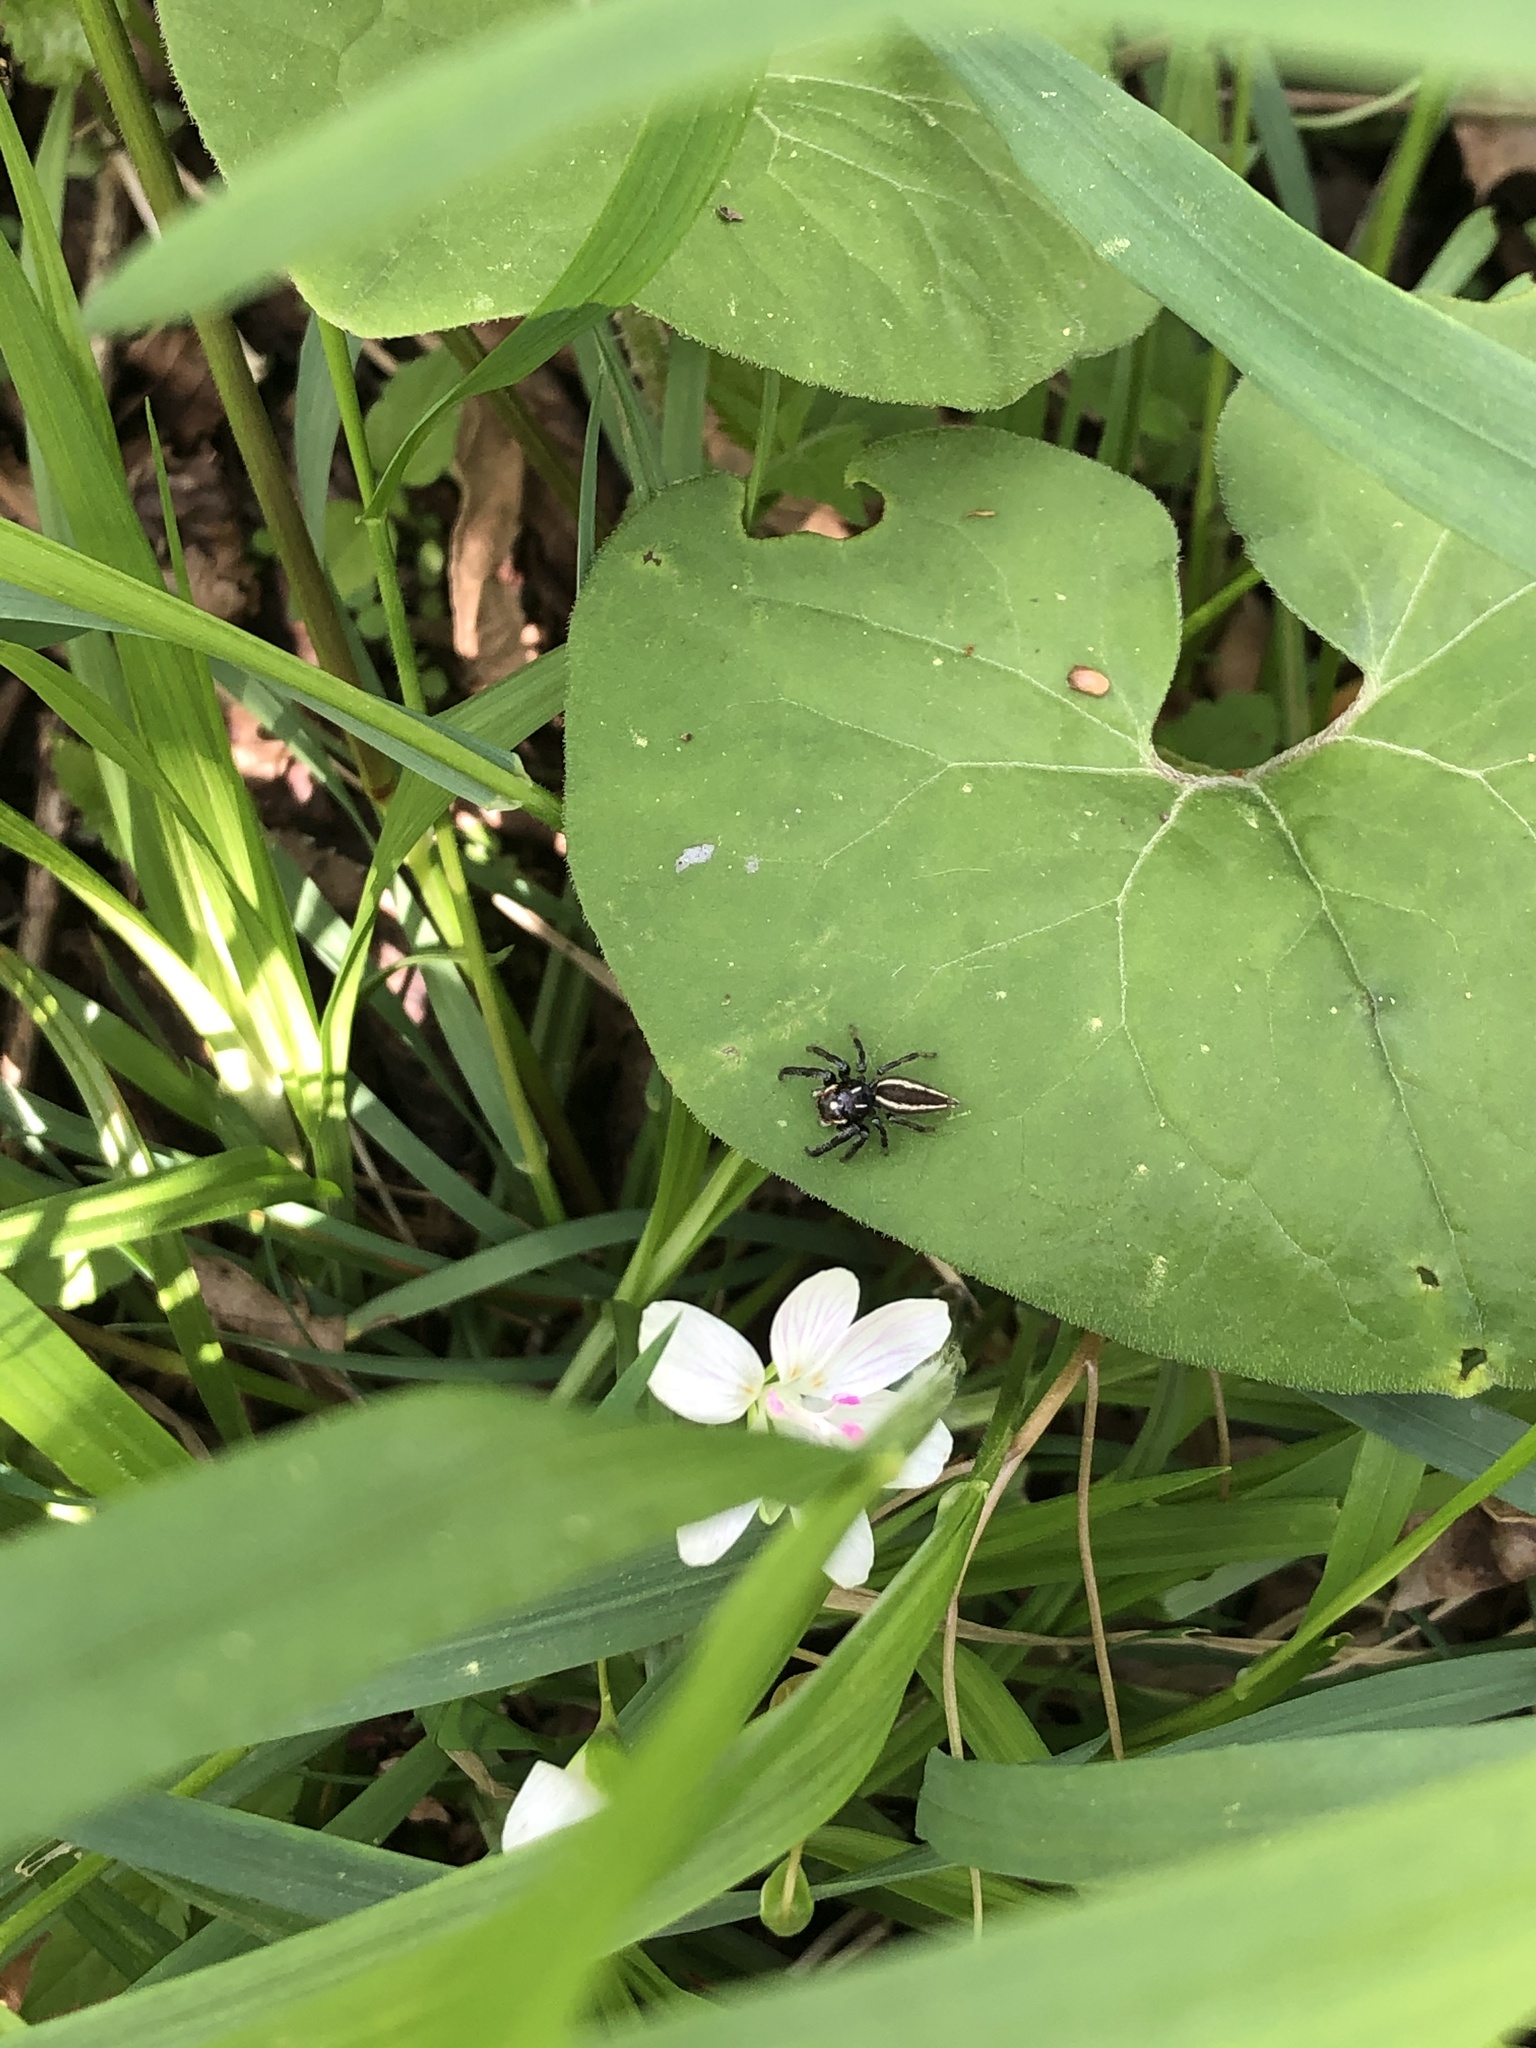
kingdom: Animalia
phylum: Arthropoda
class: Arachnida
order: Araneae
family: Salticidae
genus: Colonus
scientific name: Colonus sylvanus
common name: Jumping spiders
